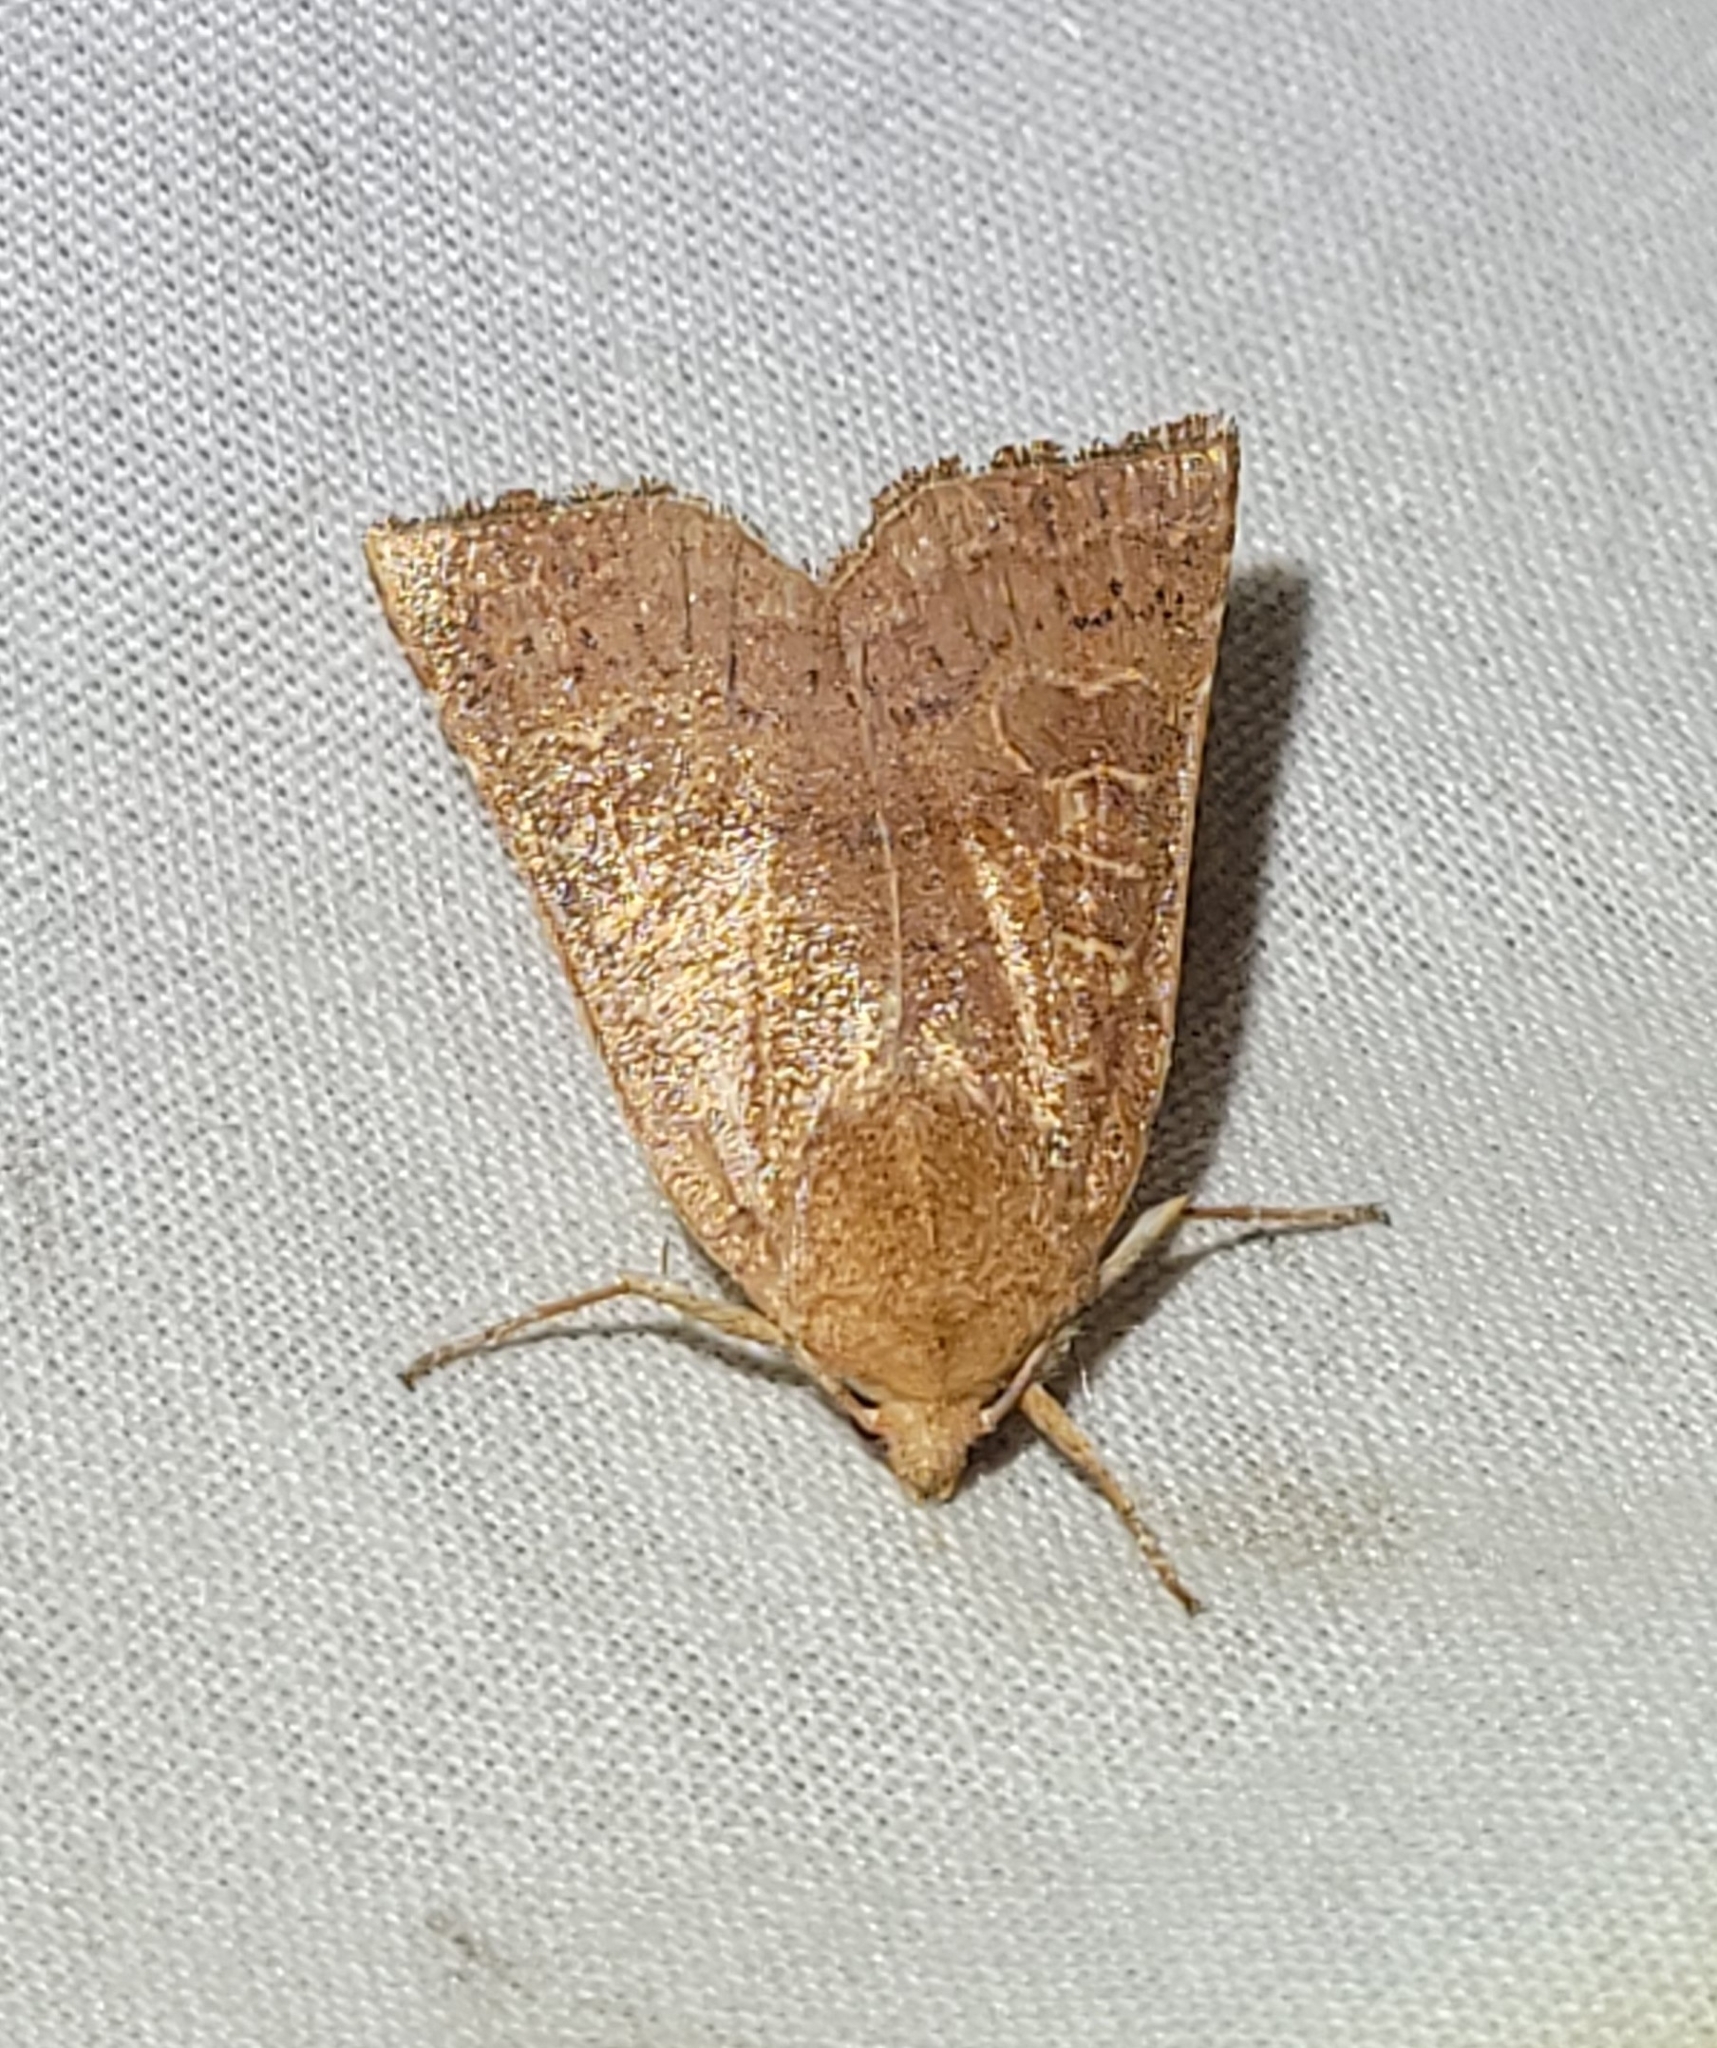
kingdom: Animalia
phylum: Arthropoda
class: Insecta
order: Lepidoptera
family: Noctuidae
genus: Xystopeplus
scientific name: Xystopeplus rufago
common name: Red-winged sallow
